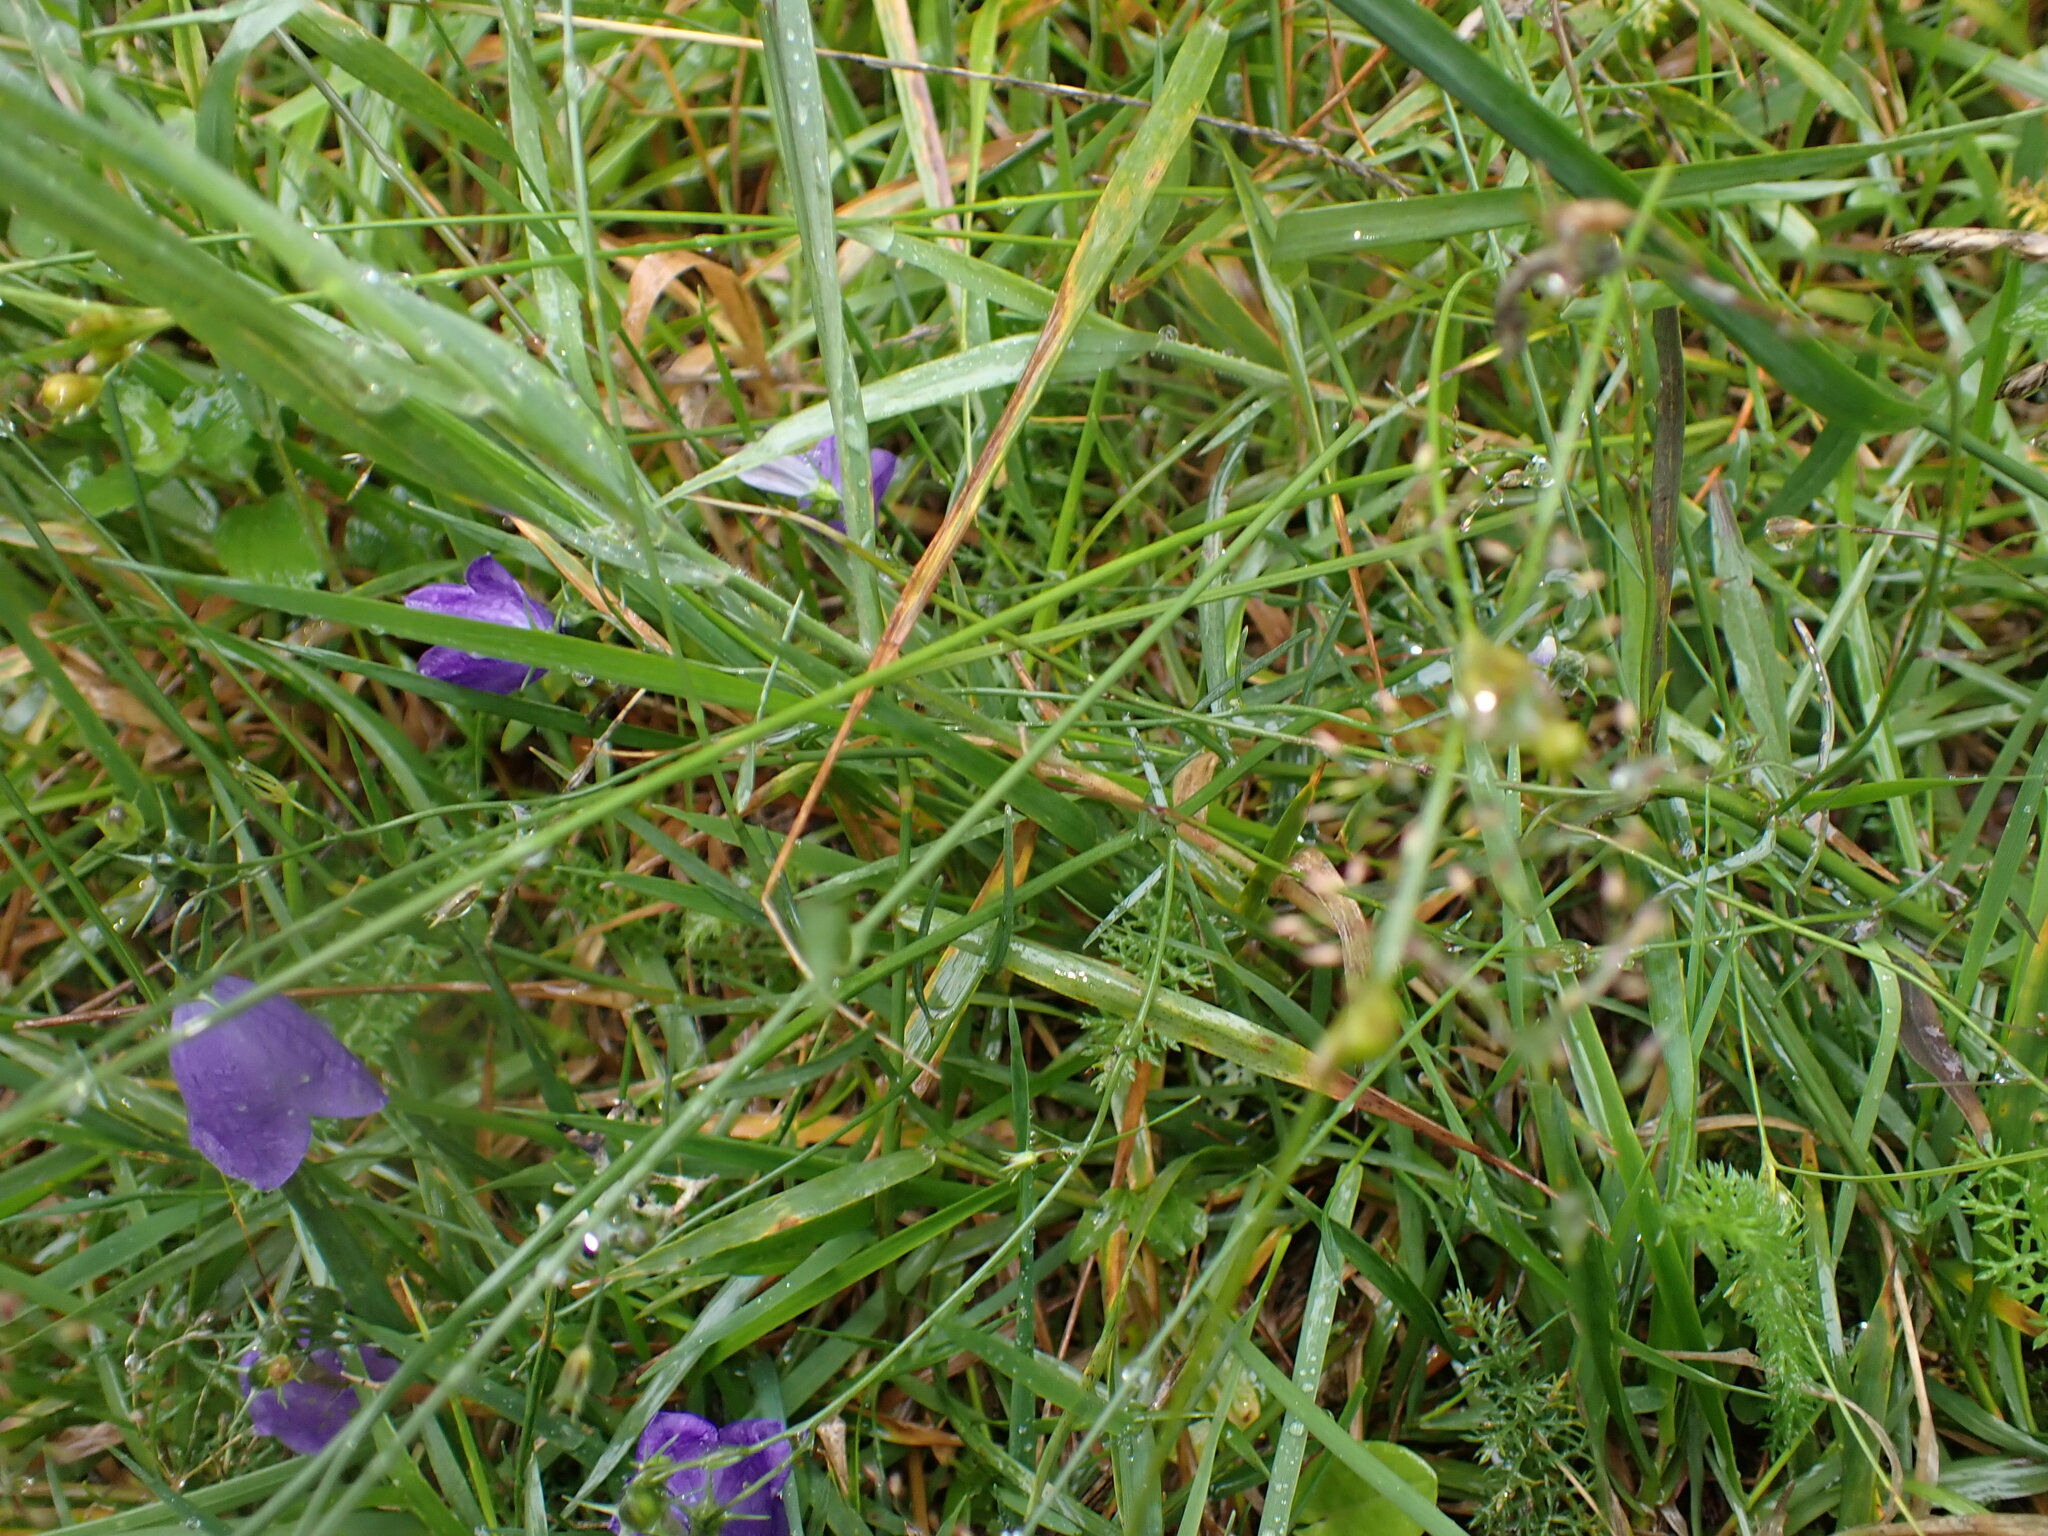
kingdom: Plantae
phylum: Tracheophyta
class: Magnoliopsida
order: Asterales
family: Campanulaceae
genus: Campanula
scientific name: Campanula rotundifolia
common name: Harebell
